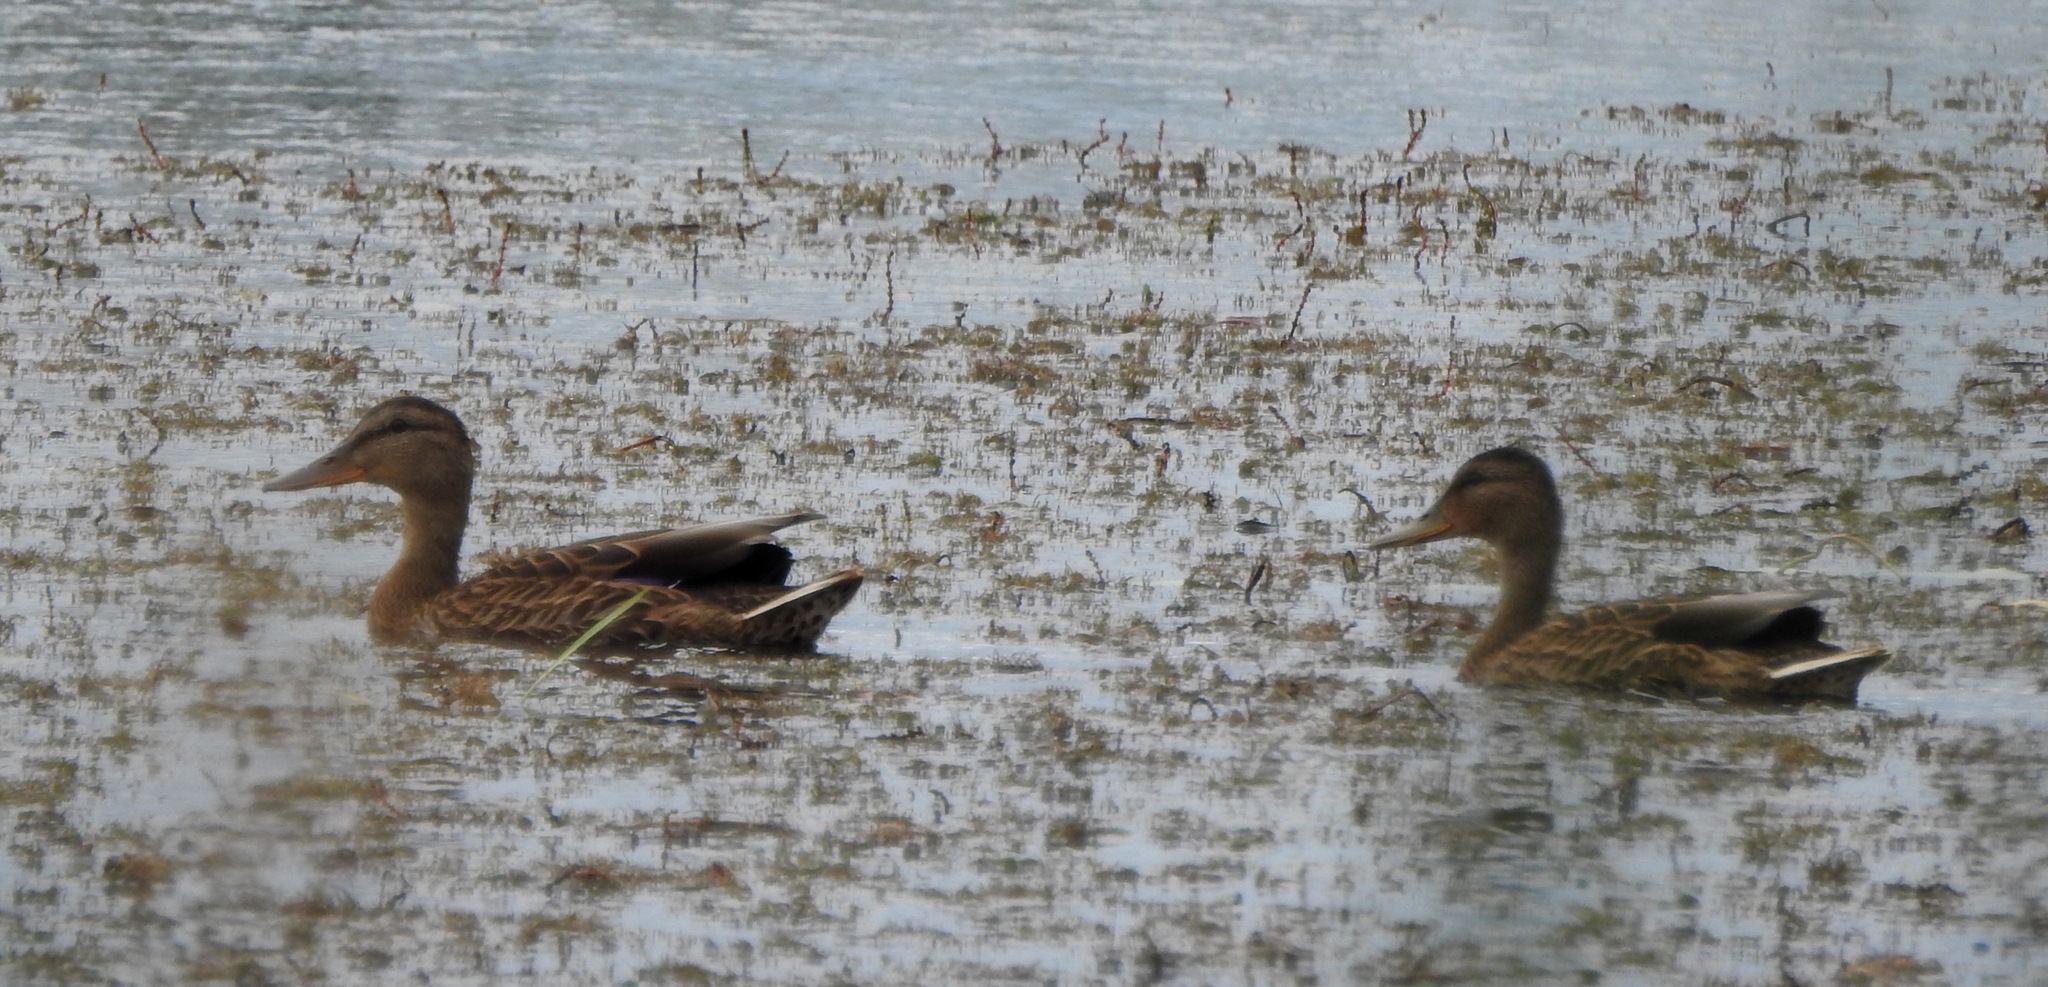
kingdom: Animalia
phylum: Chordata
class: Aves
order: Anseriformes
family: Anatidae
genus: Anas
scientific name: Anas platyrhynchos
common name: Mallard
